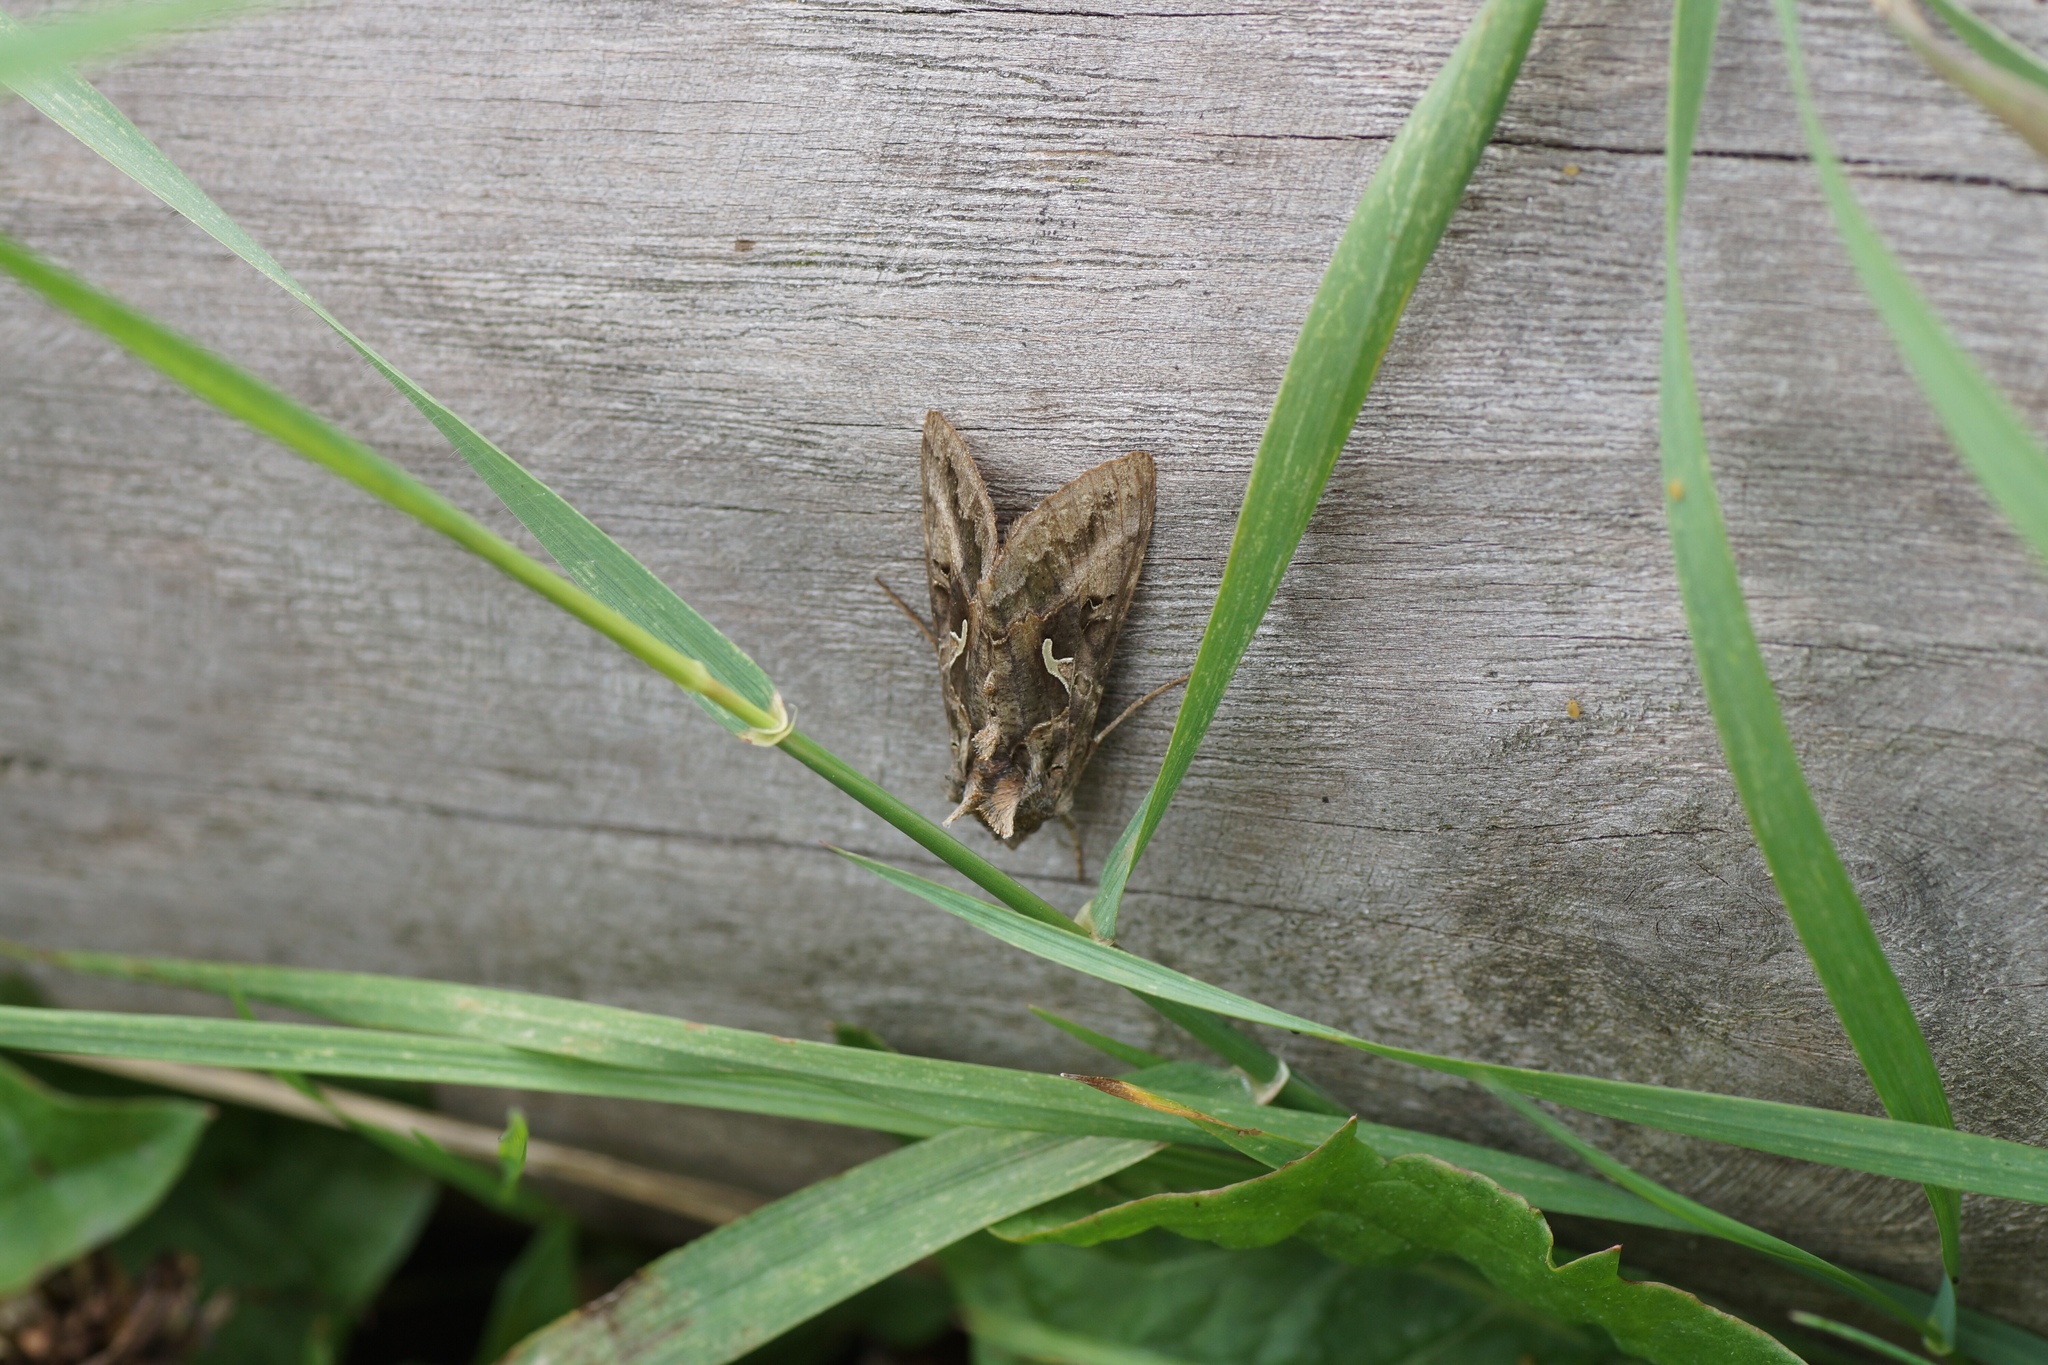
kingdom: Animalia
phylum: Arthropoda
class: Insecta
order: Lepidoptera
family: Noctuidae
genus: Autographa
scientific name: Autographa gamma
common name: Silver y
